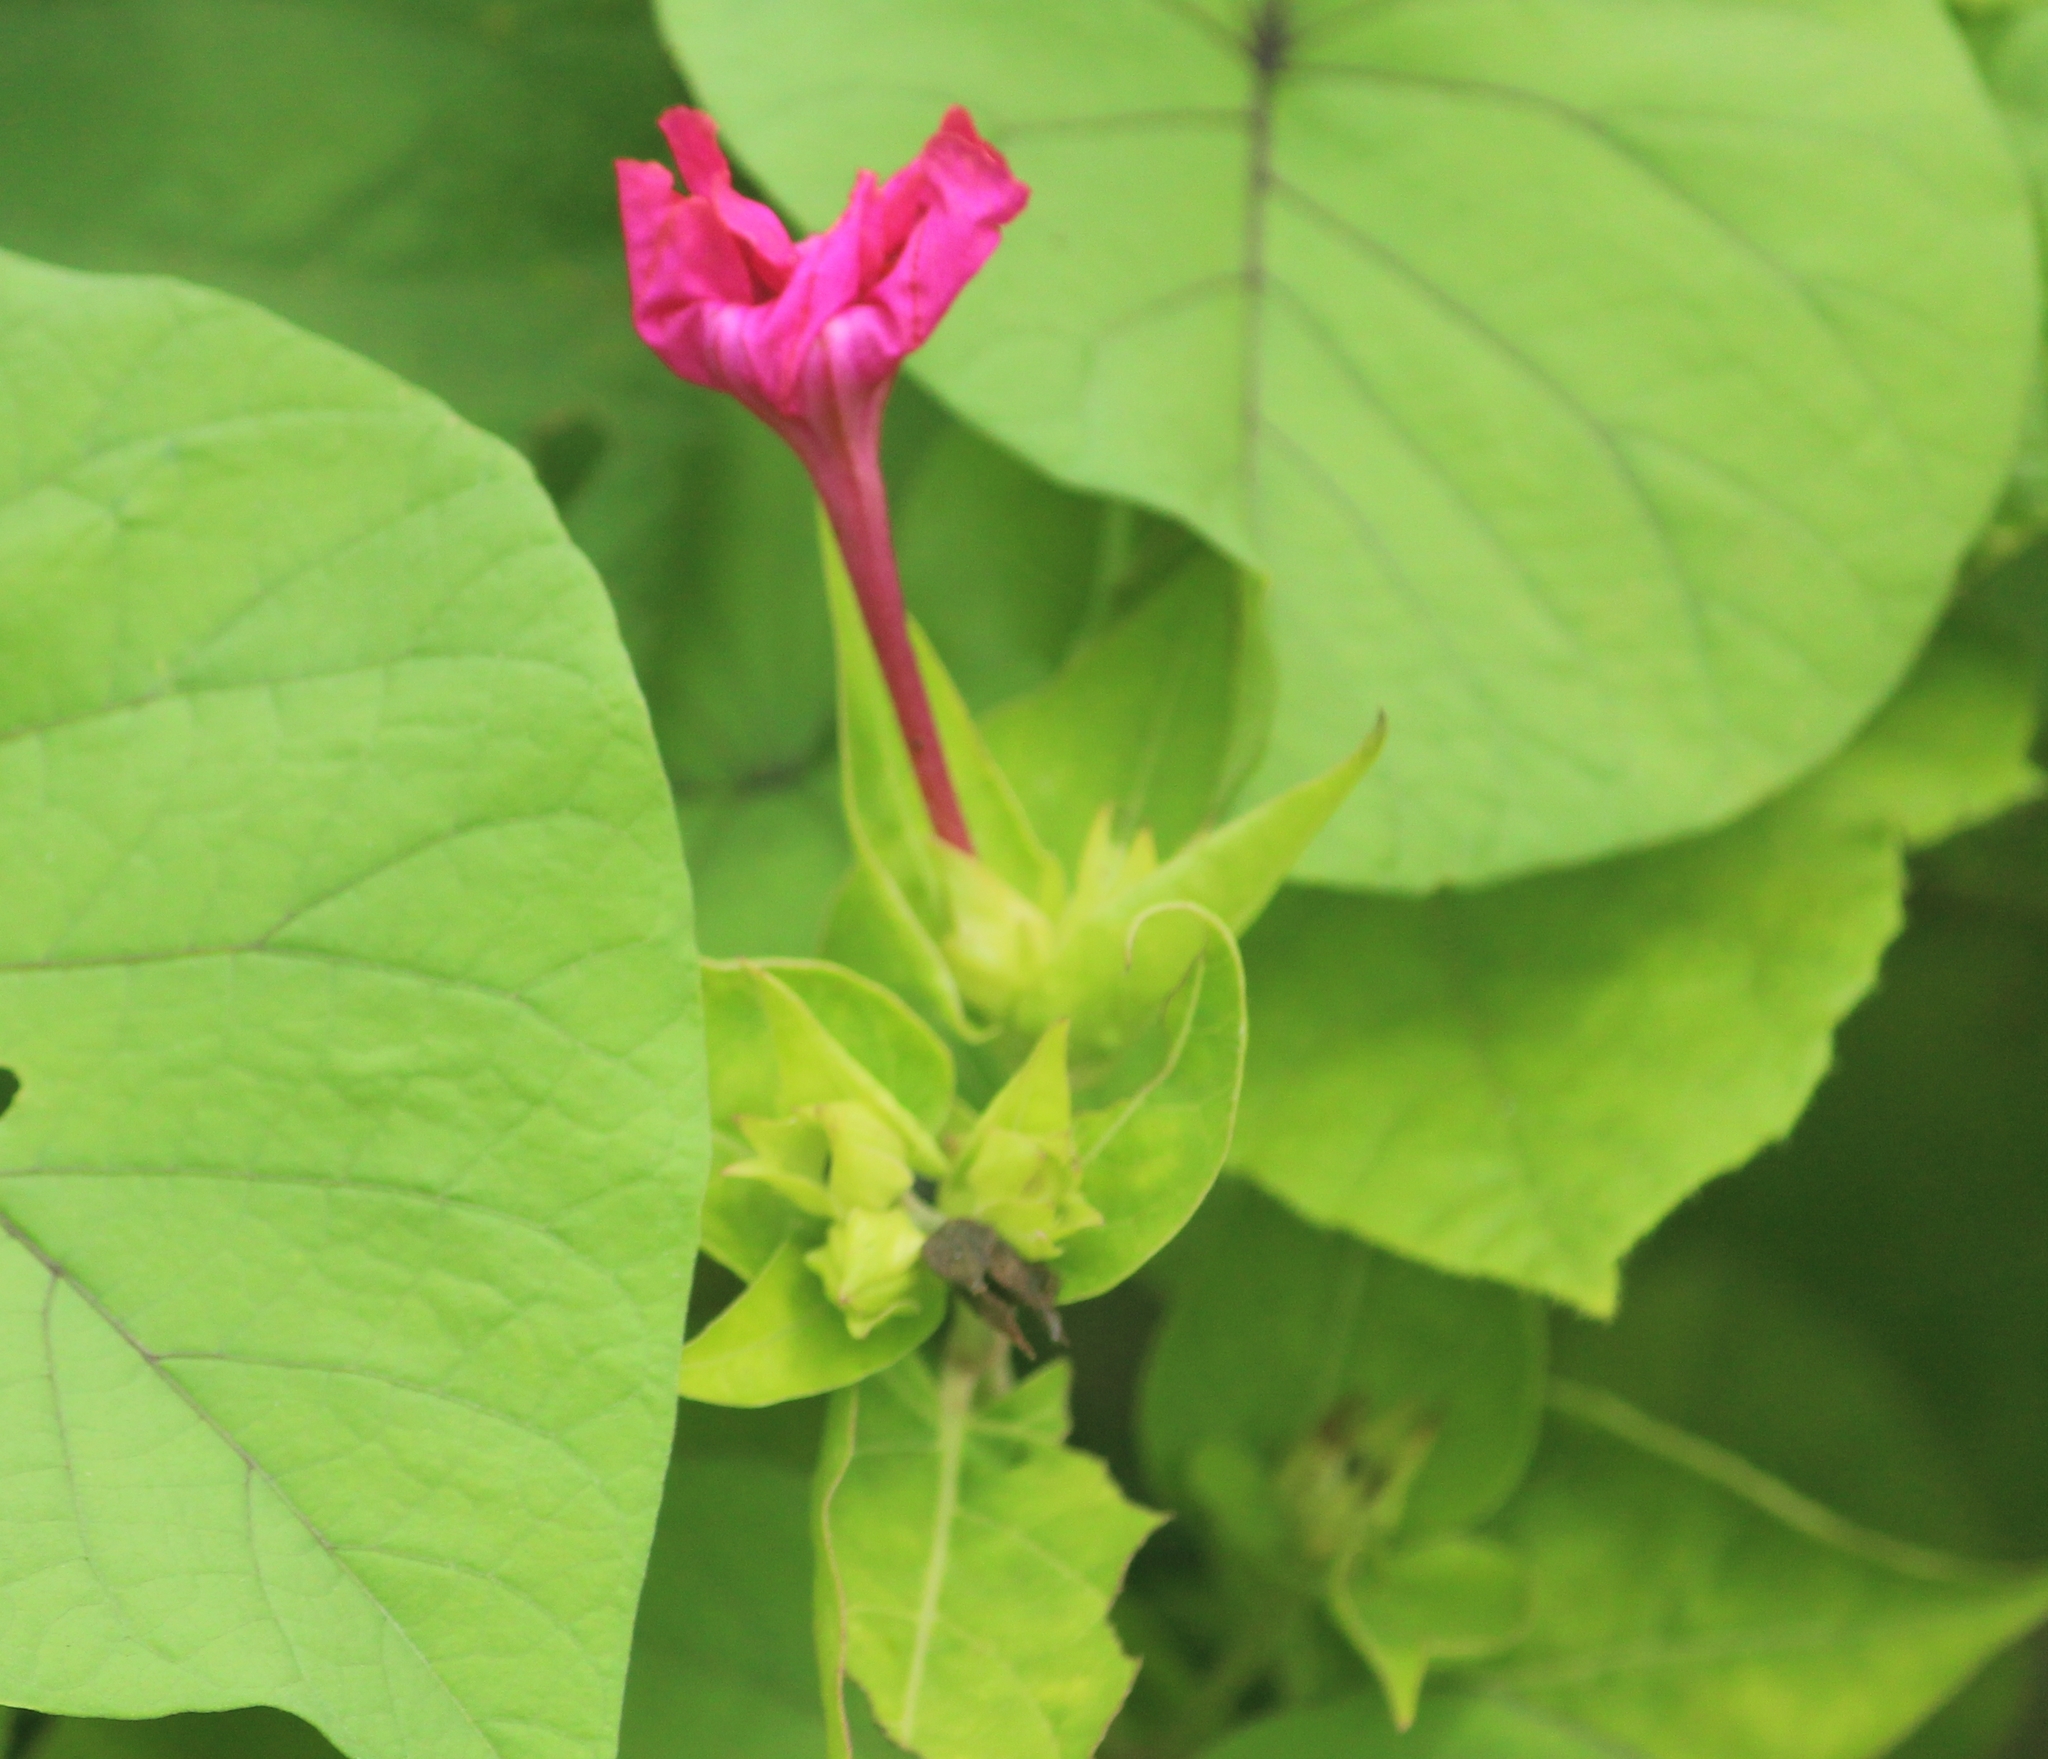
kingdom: Plantae
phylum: Tracheophyta
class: Magnoliopsida
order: Caryophyllales
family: Nyctaginaceae
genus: Mirabilis
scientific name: Mirabilis jalapa
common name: Marvel-of-peru
